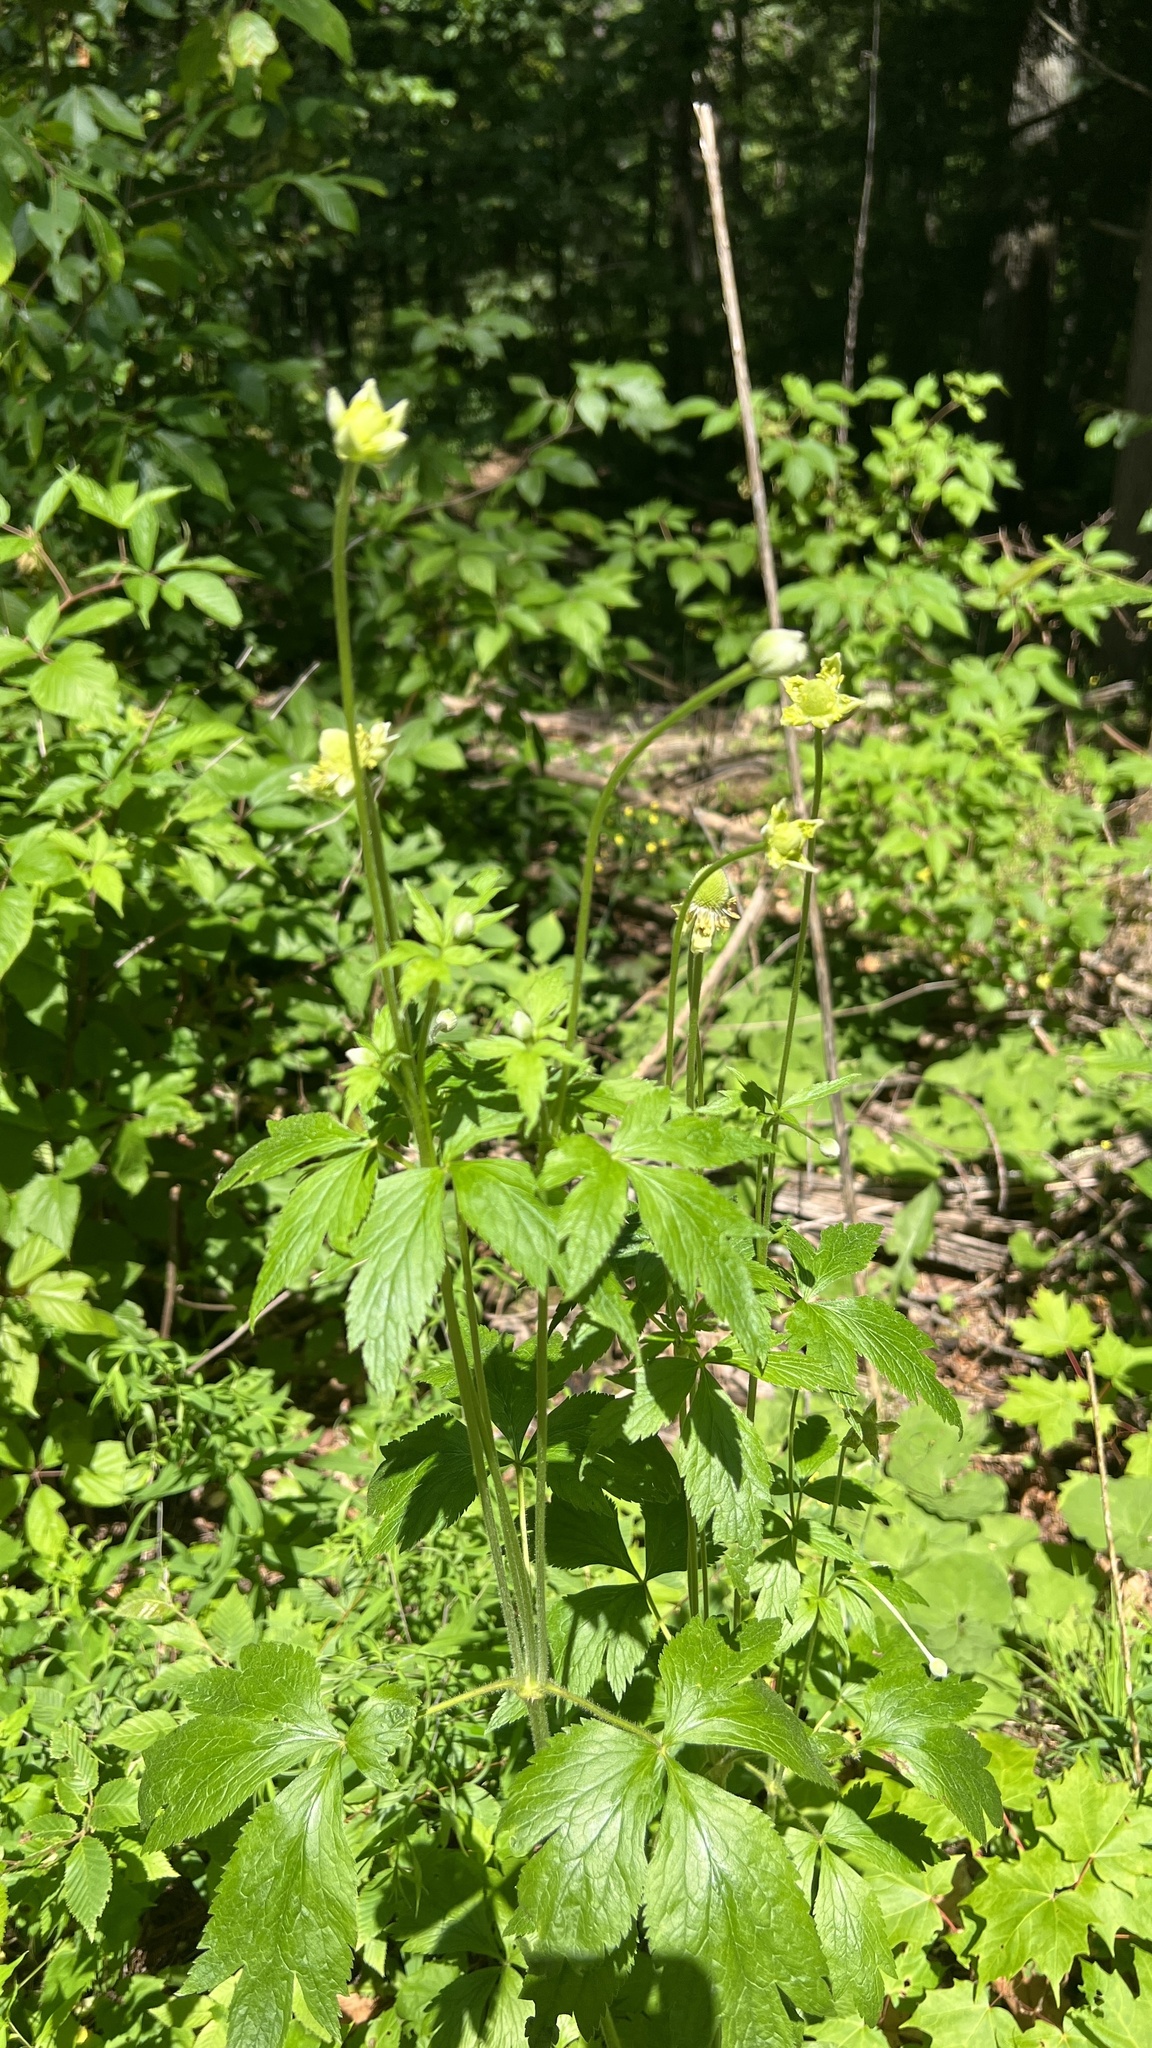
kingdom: Plantae
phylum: Tracheophyta
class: Magnoliopsida
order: Ranunculales
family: Ranunculaceae
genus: Anemone
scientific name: Anemone virginiana
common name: Tall anemone
